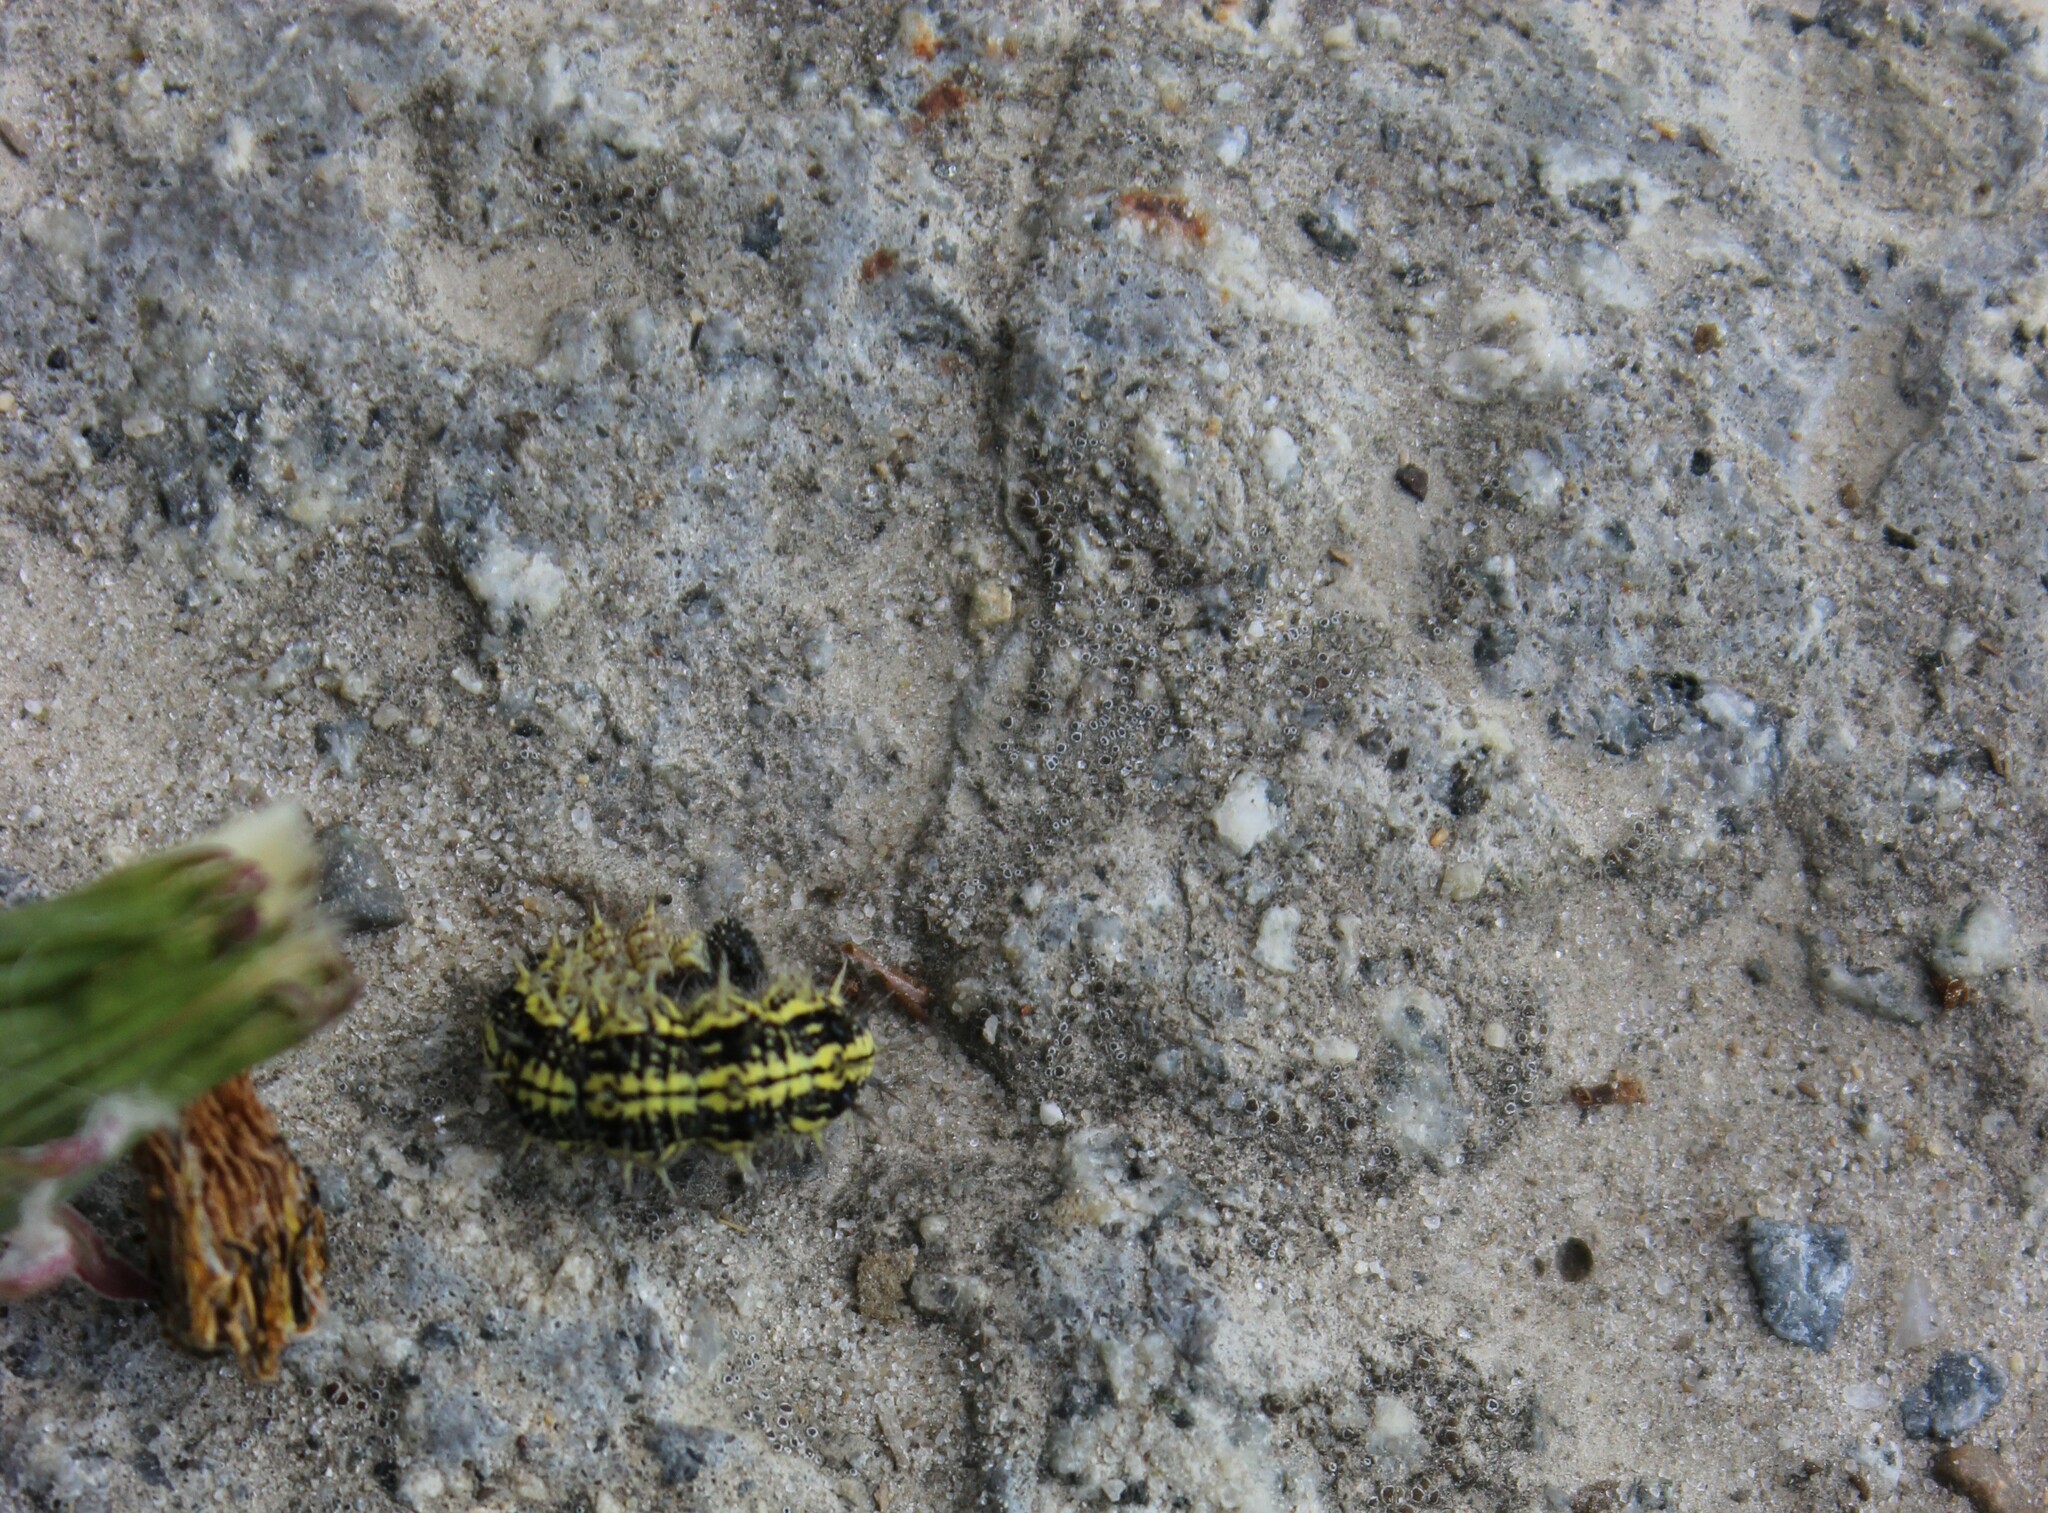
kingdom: Animalia
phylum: Arthropoda
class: Insecta
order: Lepidoptera
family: Nymphalidae
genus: Aglais
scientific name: Aglais urticae
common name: Small tortoiseshell
